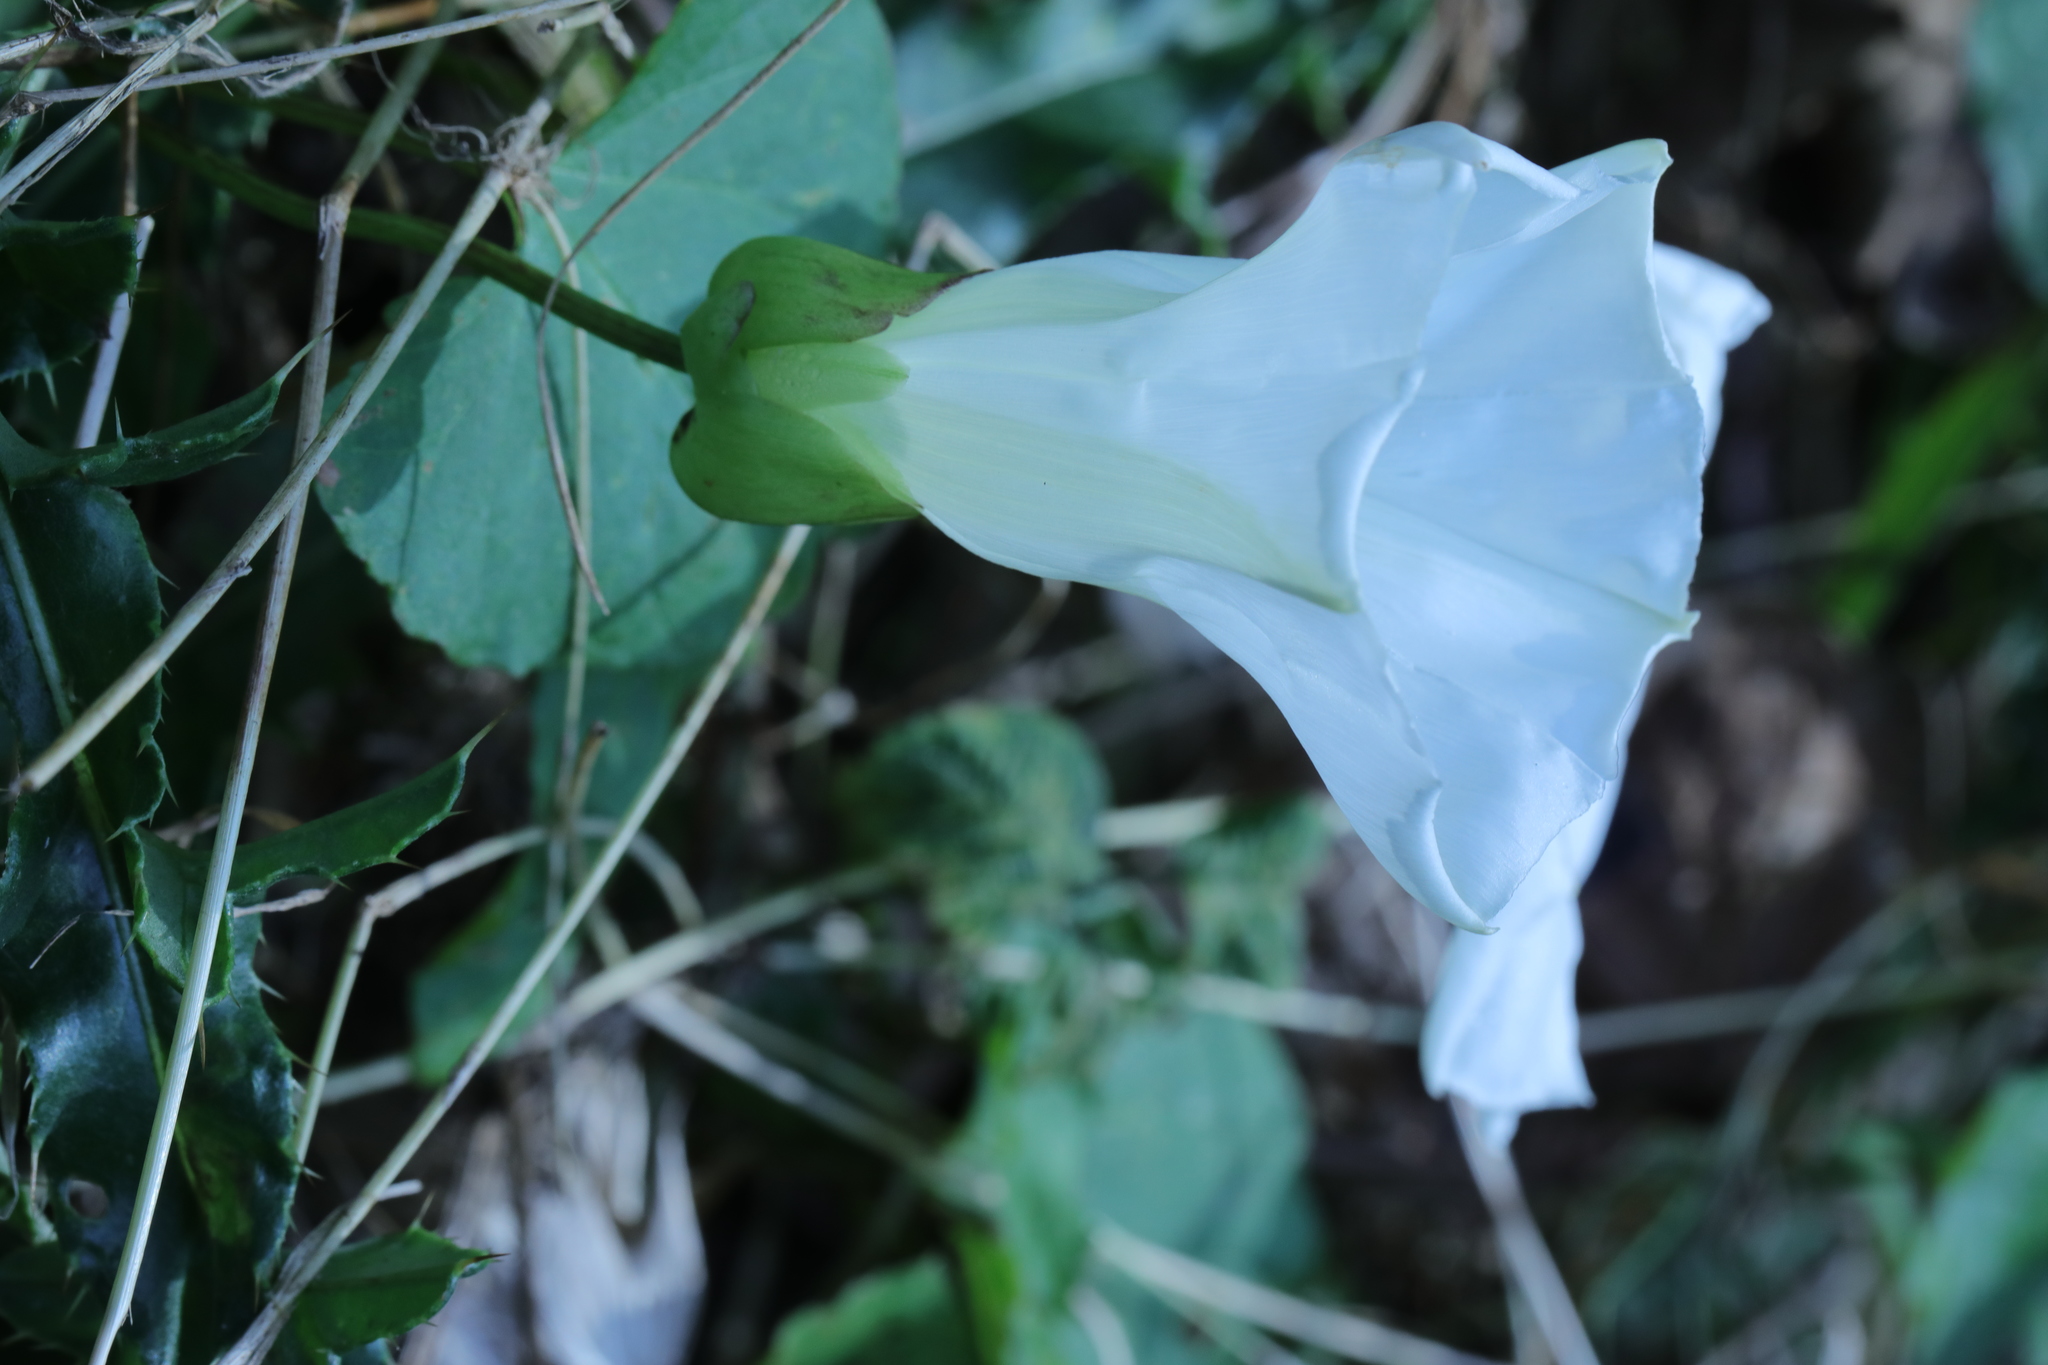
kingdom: Plantae
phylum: Tracheophyta
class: Magnoliopsida
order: Solanales
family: Convolvulaceae
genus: Calystegia
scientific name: Calystegia silvatica
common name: Large bindweed
